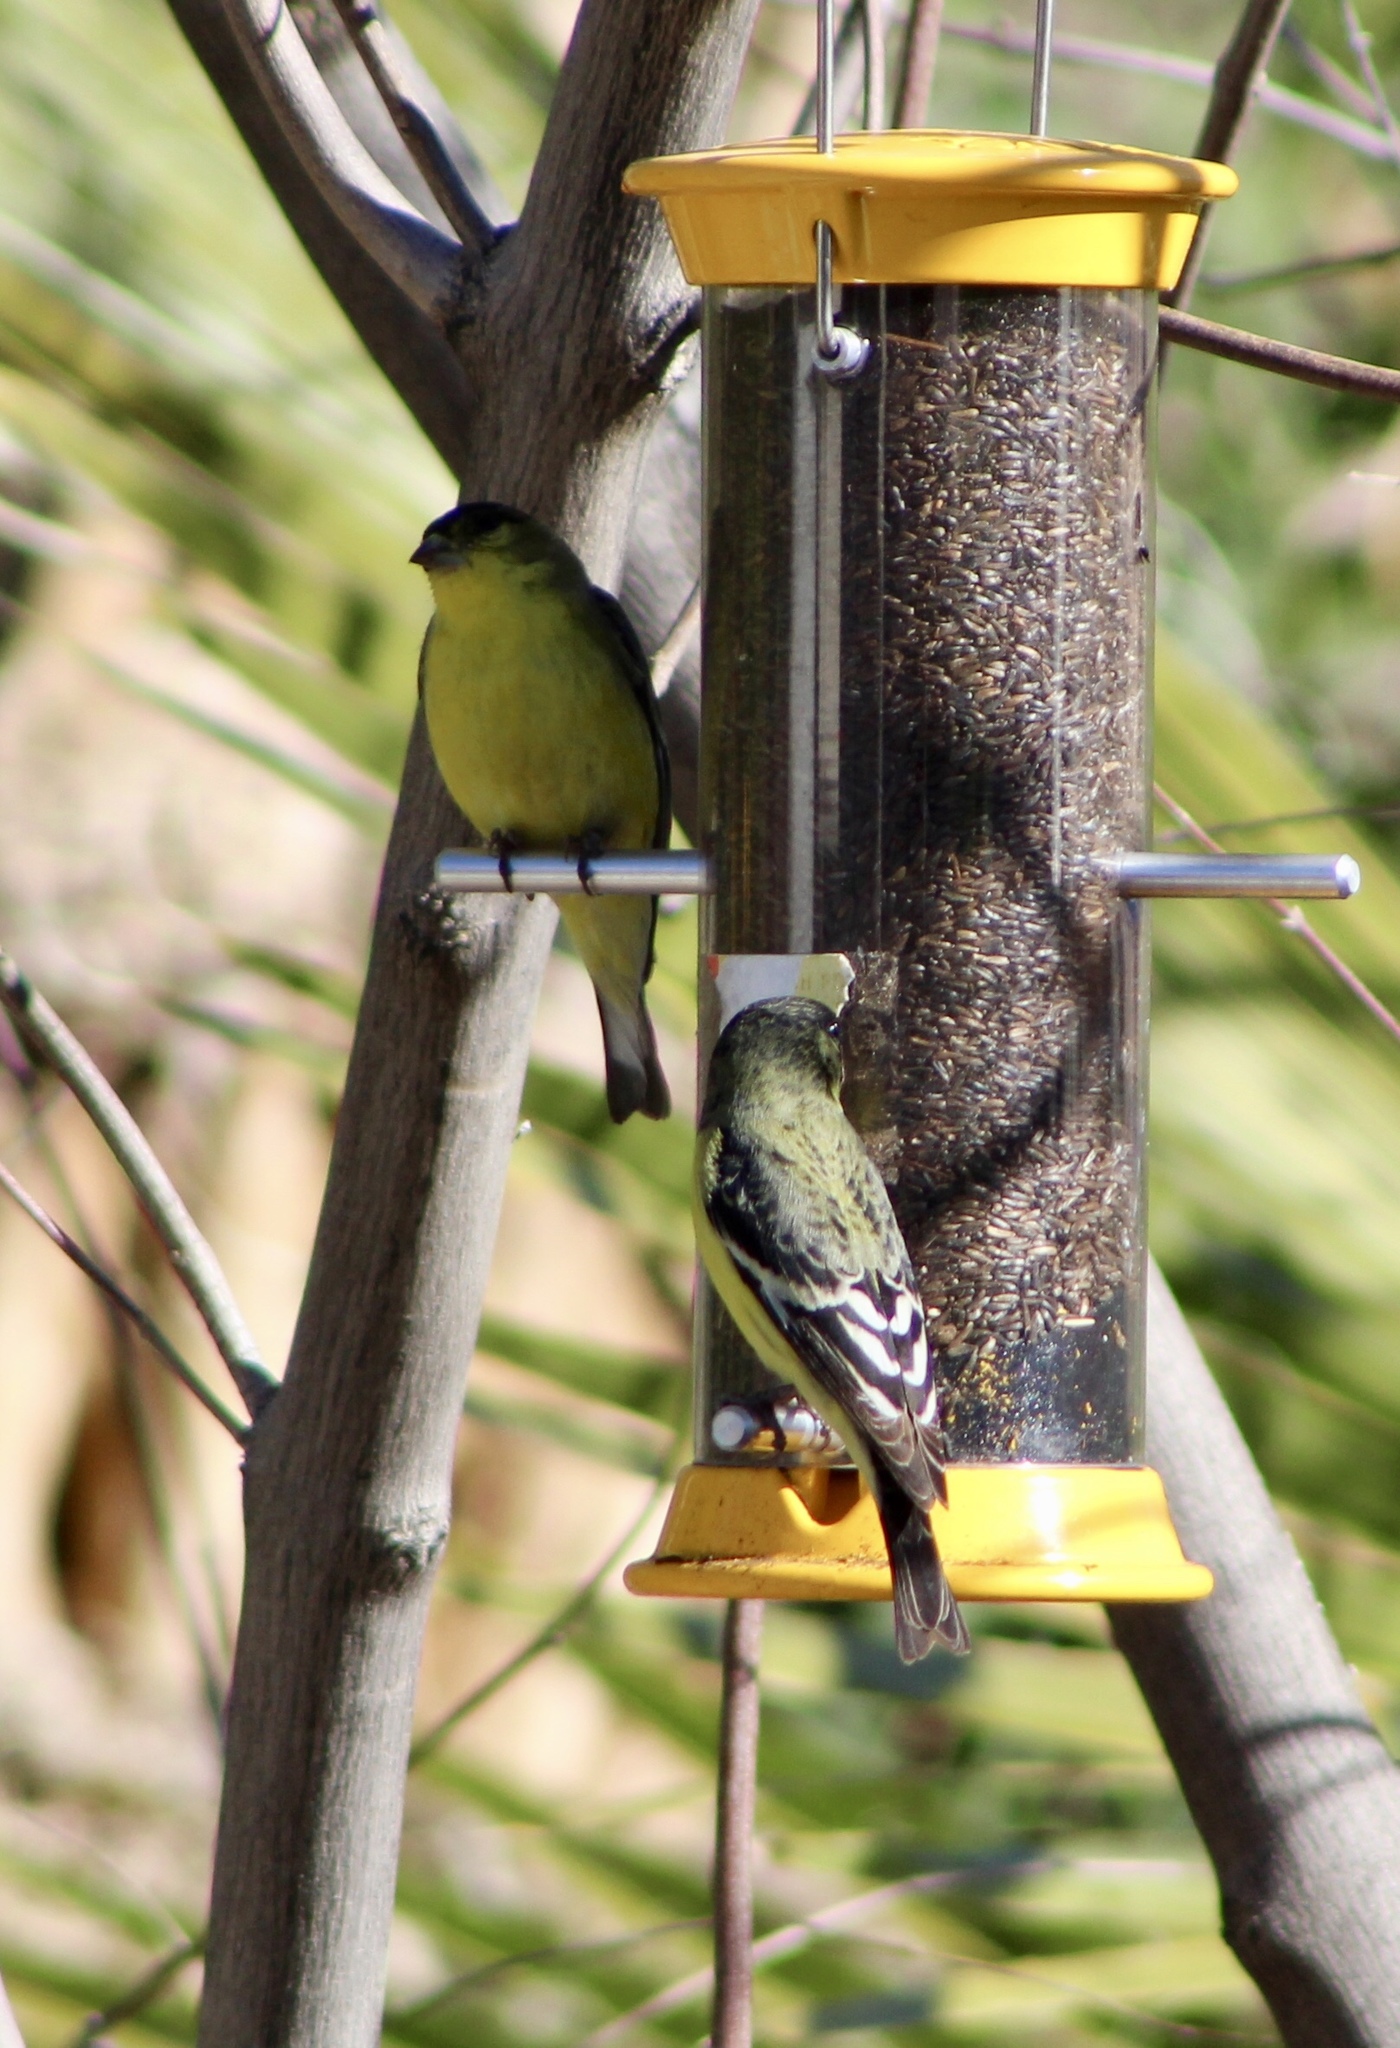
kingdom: Animalia
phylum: Chordata
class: Aves
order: Passeriformes
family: Fringillidae
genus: Spinus
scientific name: Spinus psaltria
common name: Lesser goldfinch
